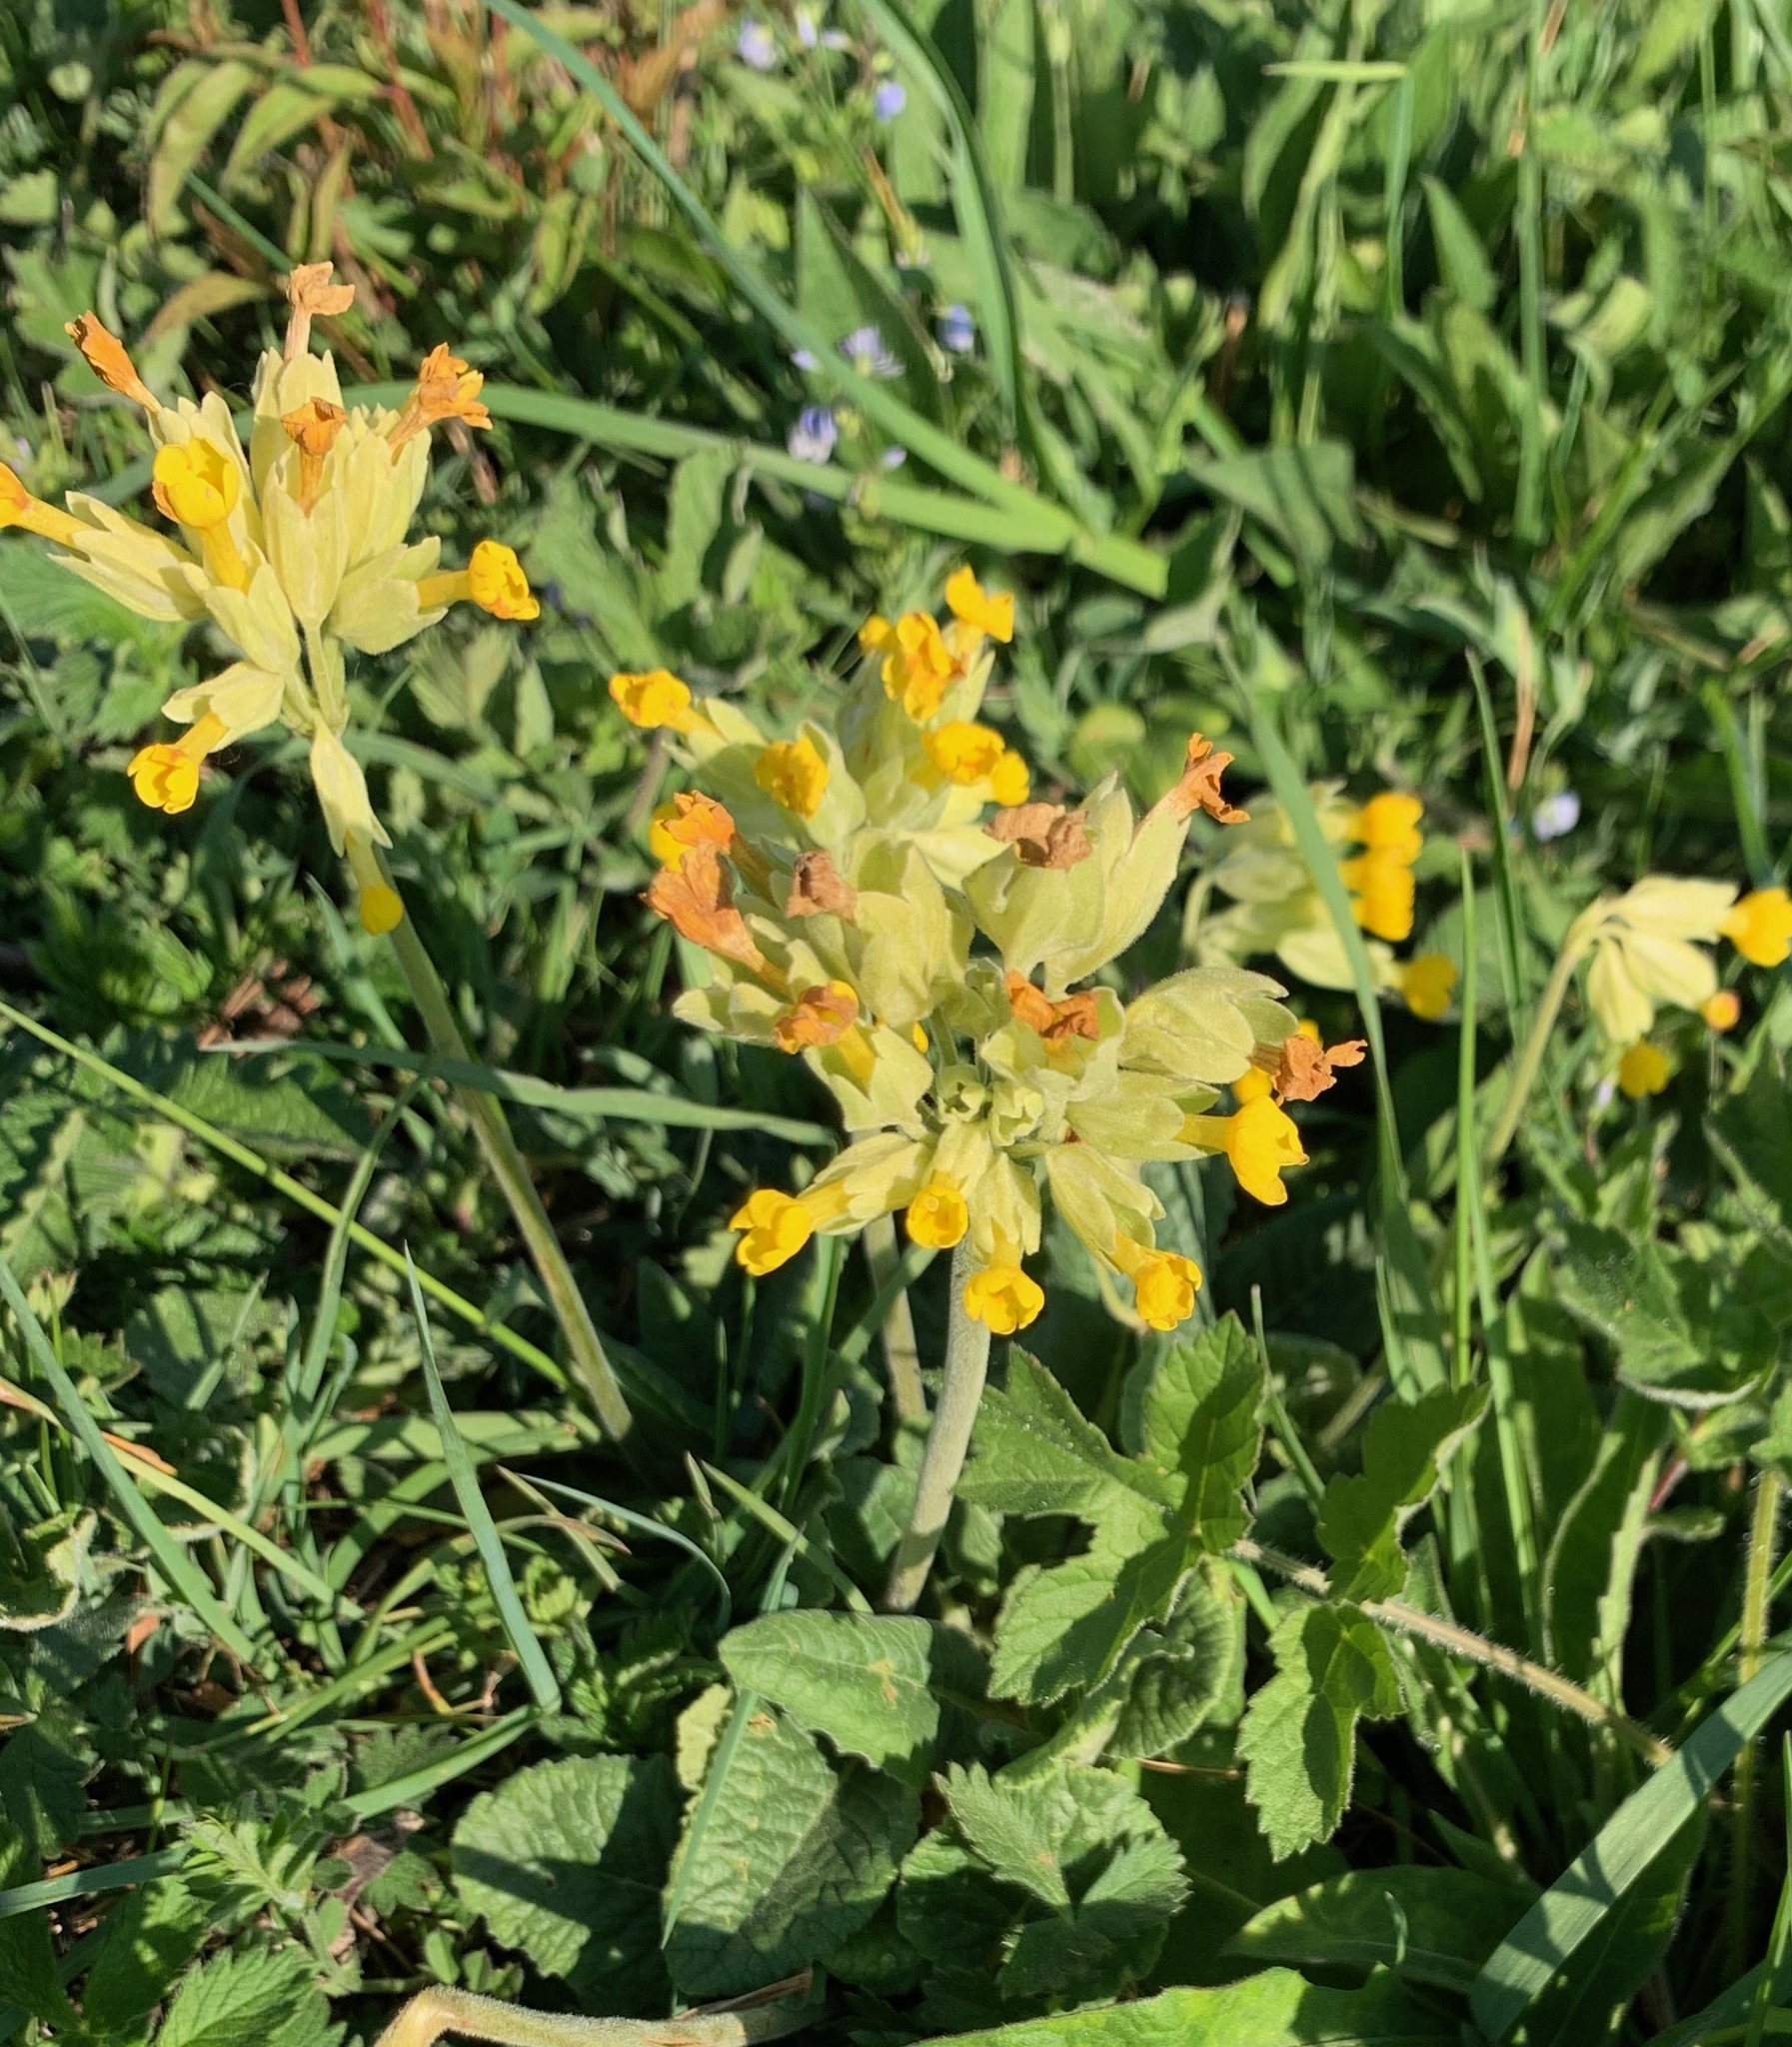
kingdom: Plantae
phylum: Tracheophyta
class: Magnoliopsida
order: Ericales
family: Primulaceae
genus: Primula
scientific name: Primula veris
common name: Cowslip
